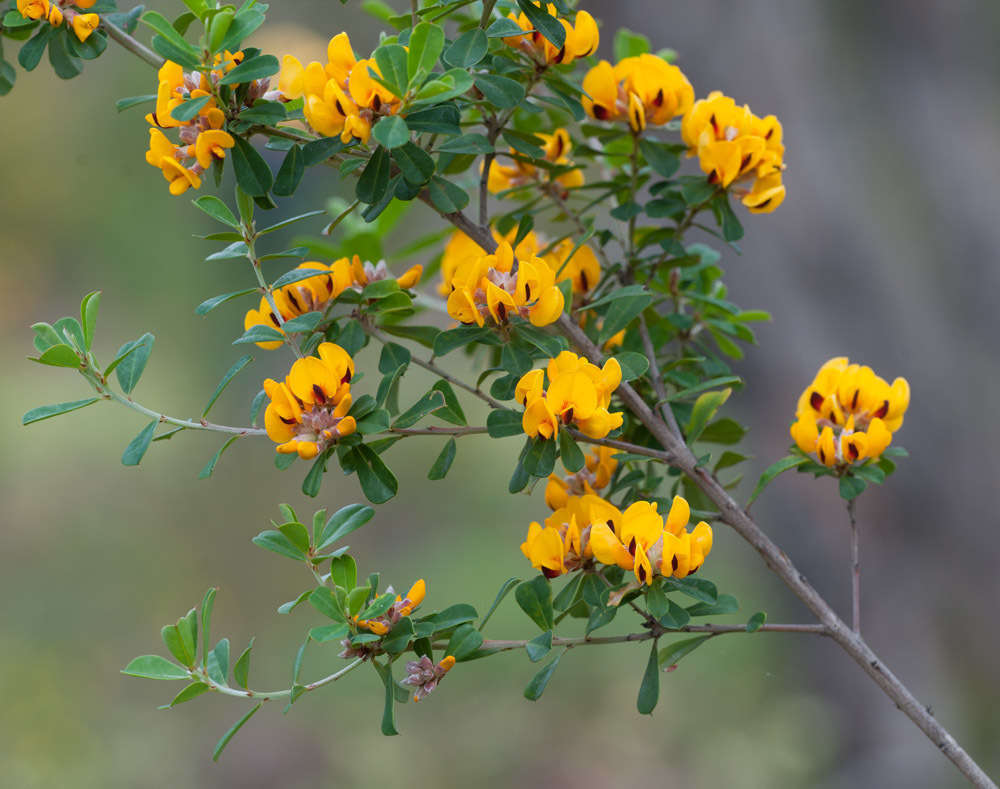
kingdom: Plantae
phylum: Tracheophyta
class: Magnoliopsida
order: Fabales
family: Fabaceae
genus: Pultenaea
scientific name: Pultenaea daphnoides
